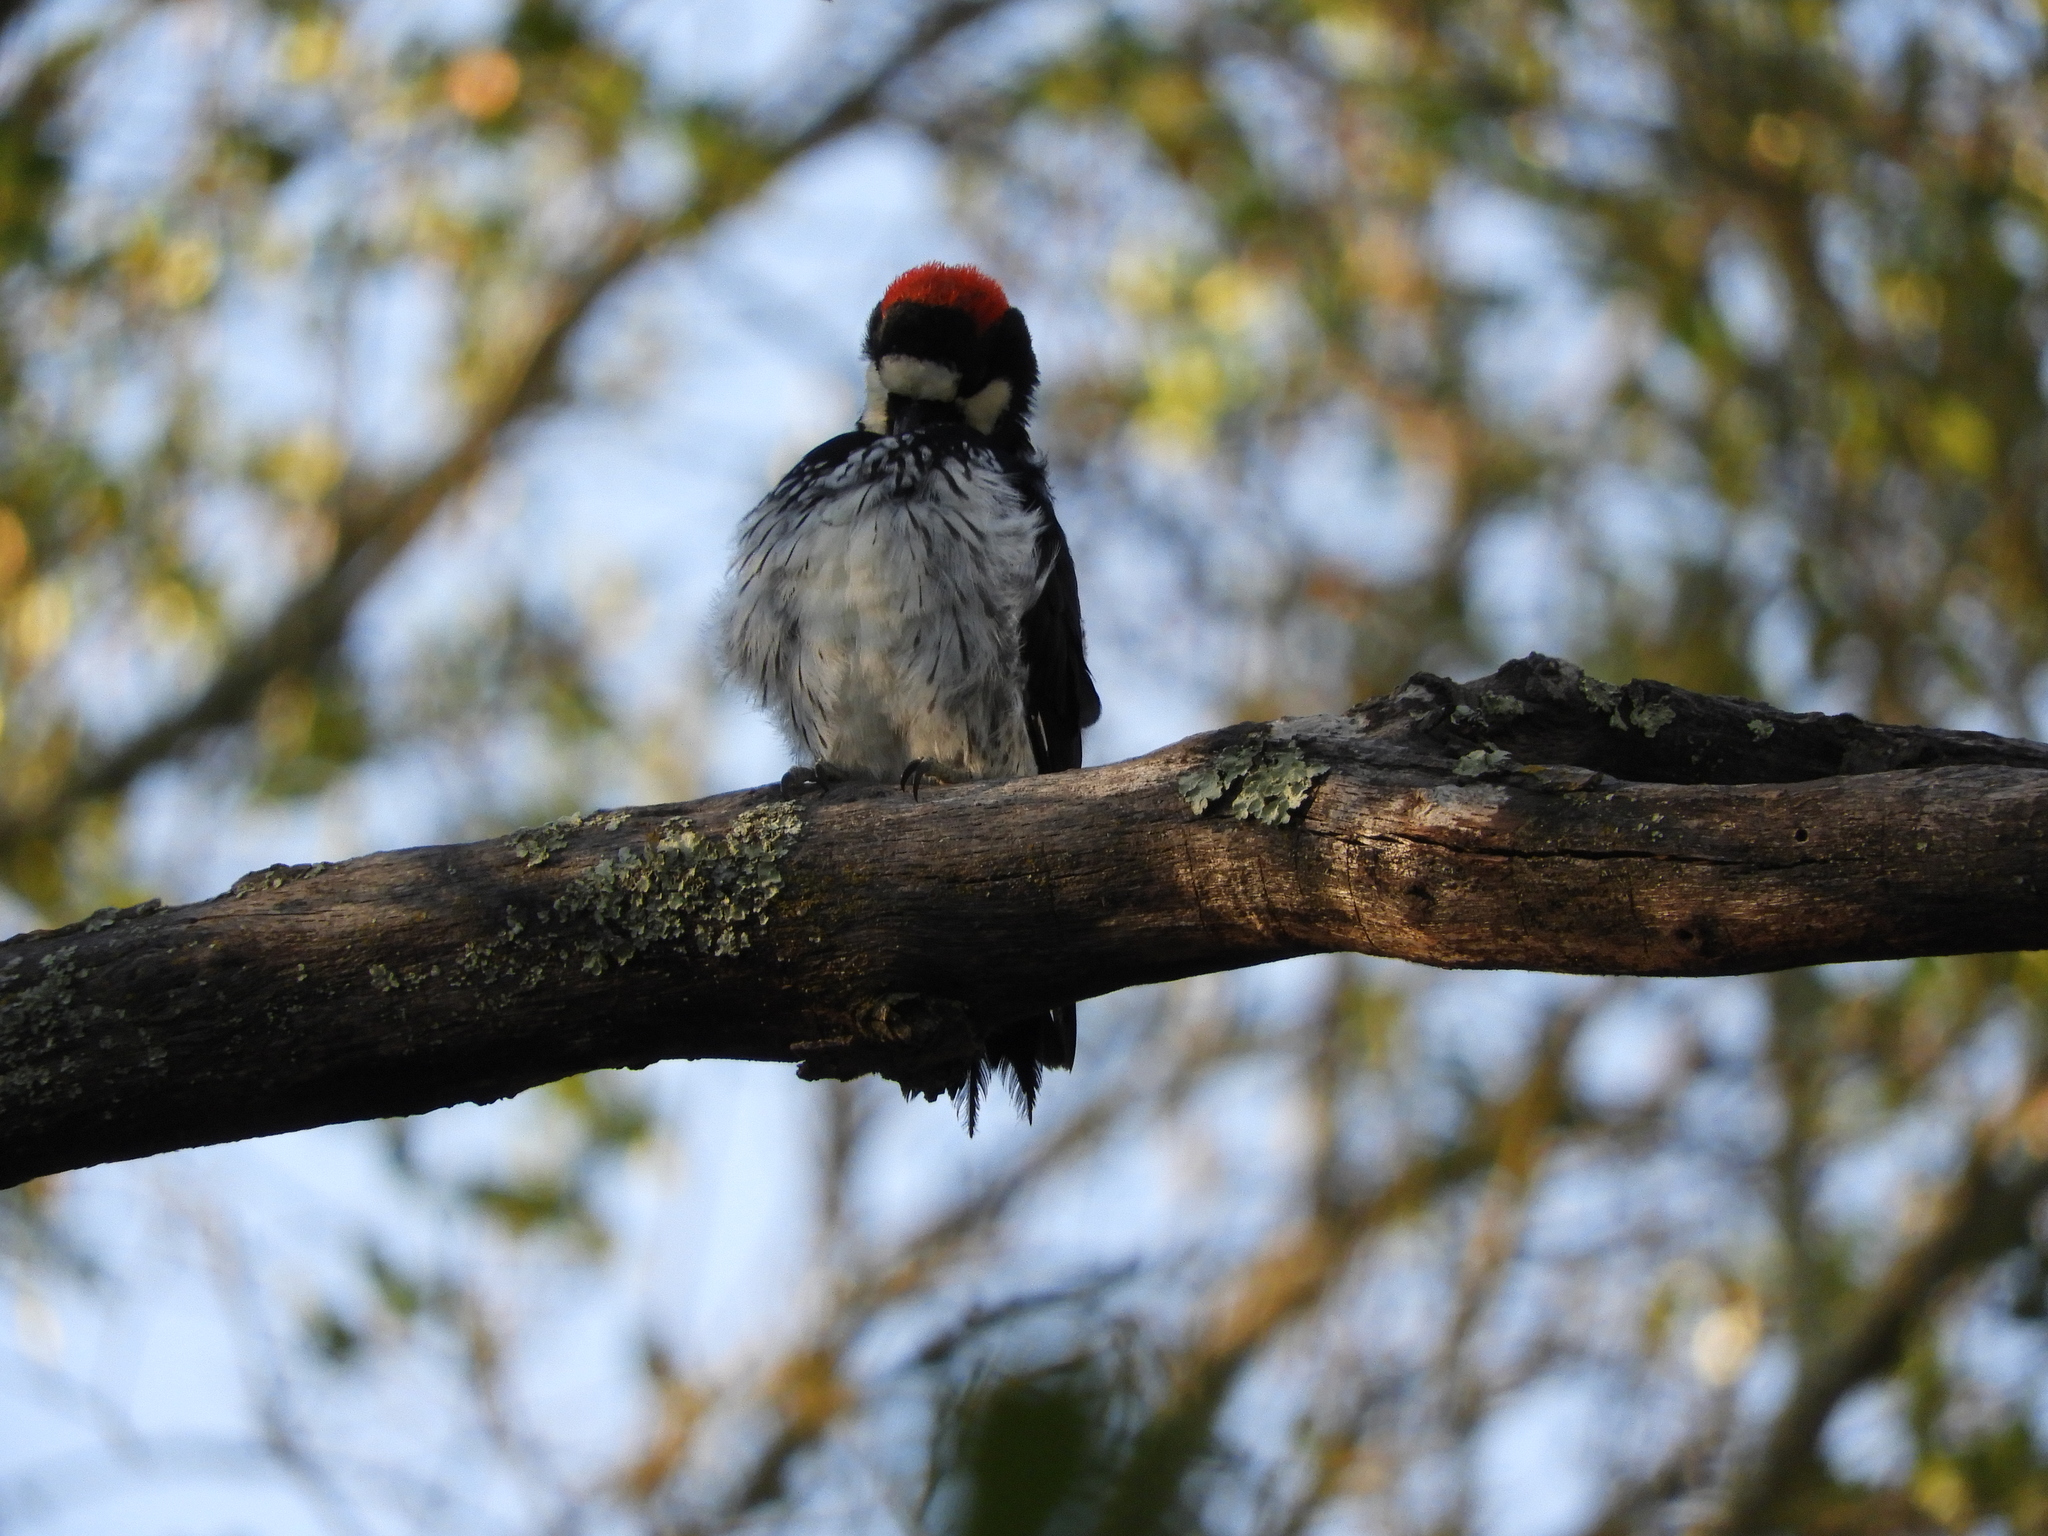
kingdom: Animalia
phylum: Chordata
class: Aves
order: Piciformes
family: Picidae
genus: Melanerpes
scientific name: Melanerpes formicivorus
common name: Acorn woodpecker
